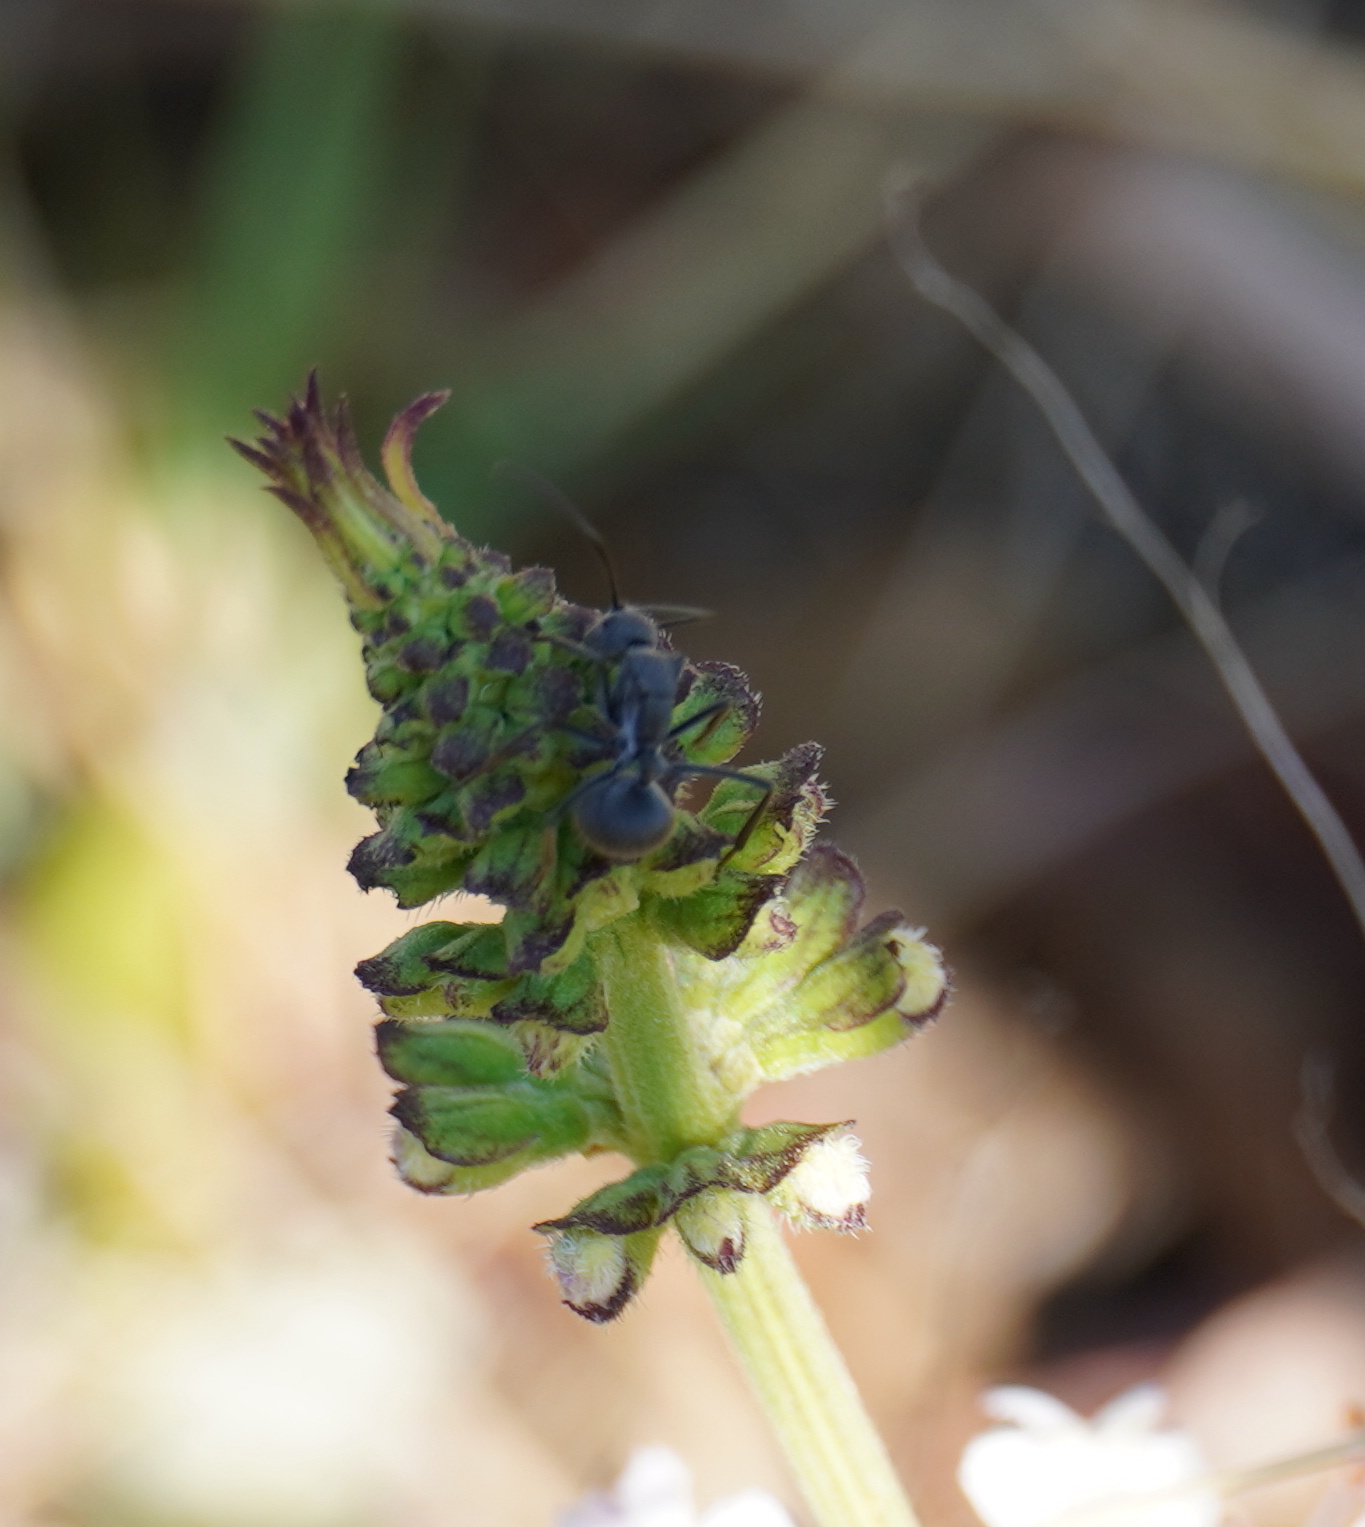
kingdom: Animalia
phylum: Arthropoda
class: Insecta
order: Hymenoptera
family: Formicidae
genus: Polyrhachis
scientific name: Polyrhachis schistacea
